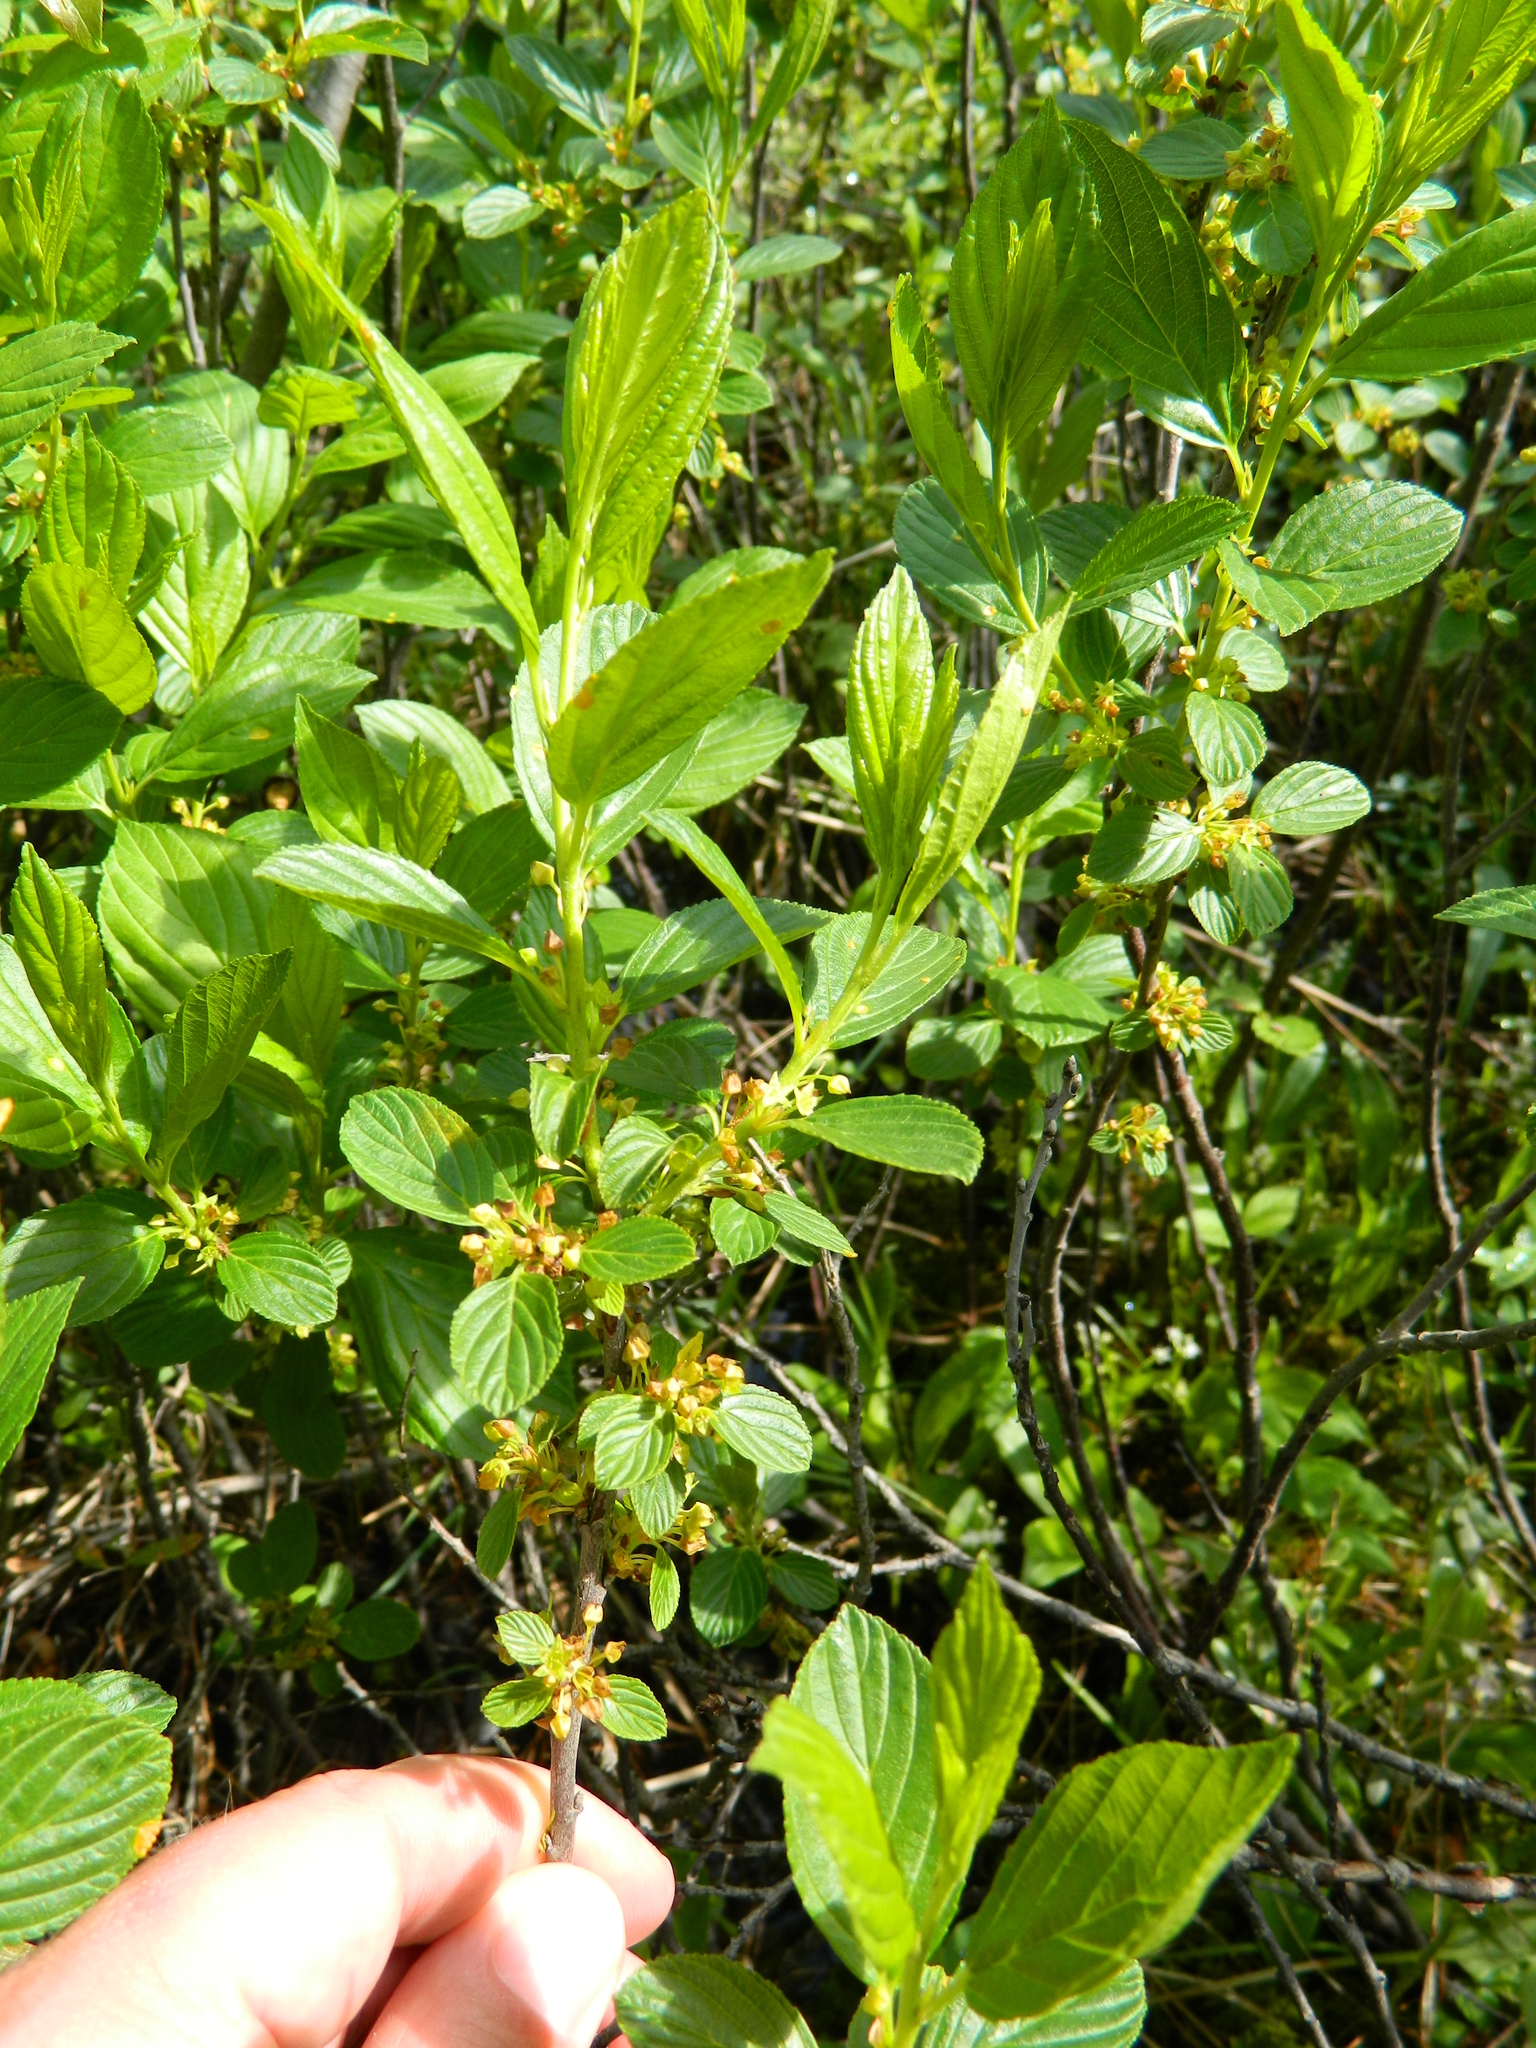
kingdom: Plantae
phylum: Tracheophyta
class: Magnoliopsida
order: Rosales
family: Rhamnaceae
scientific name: Rhamnaceae
